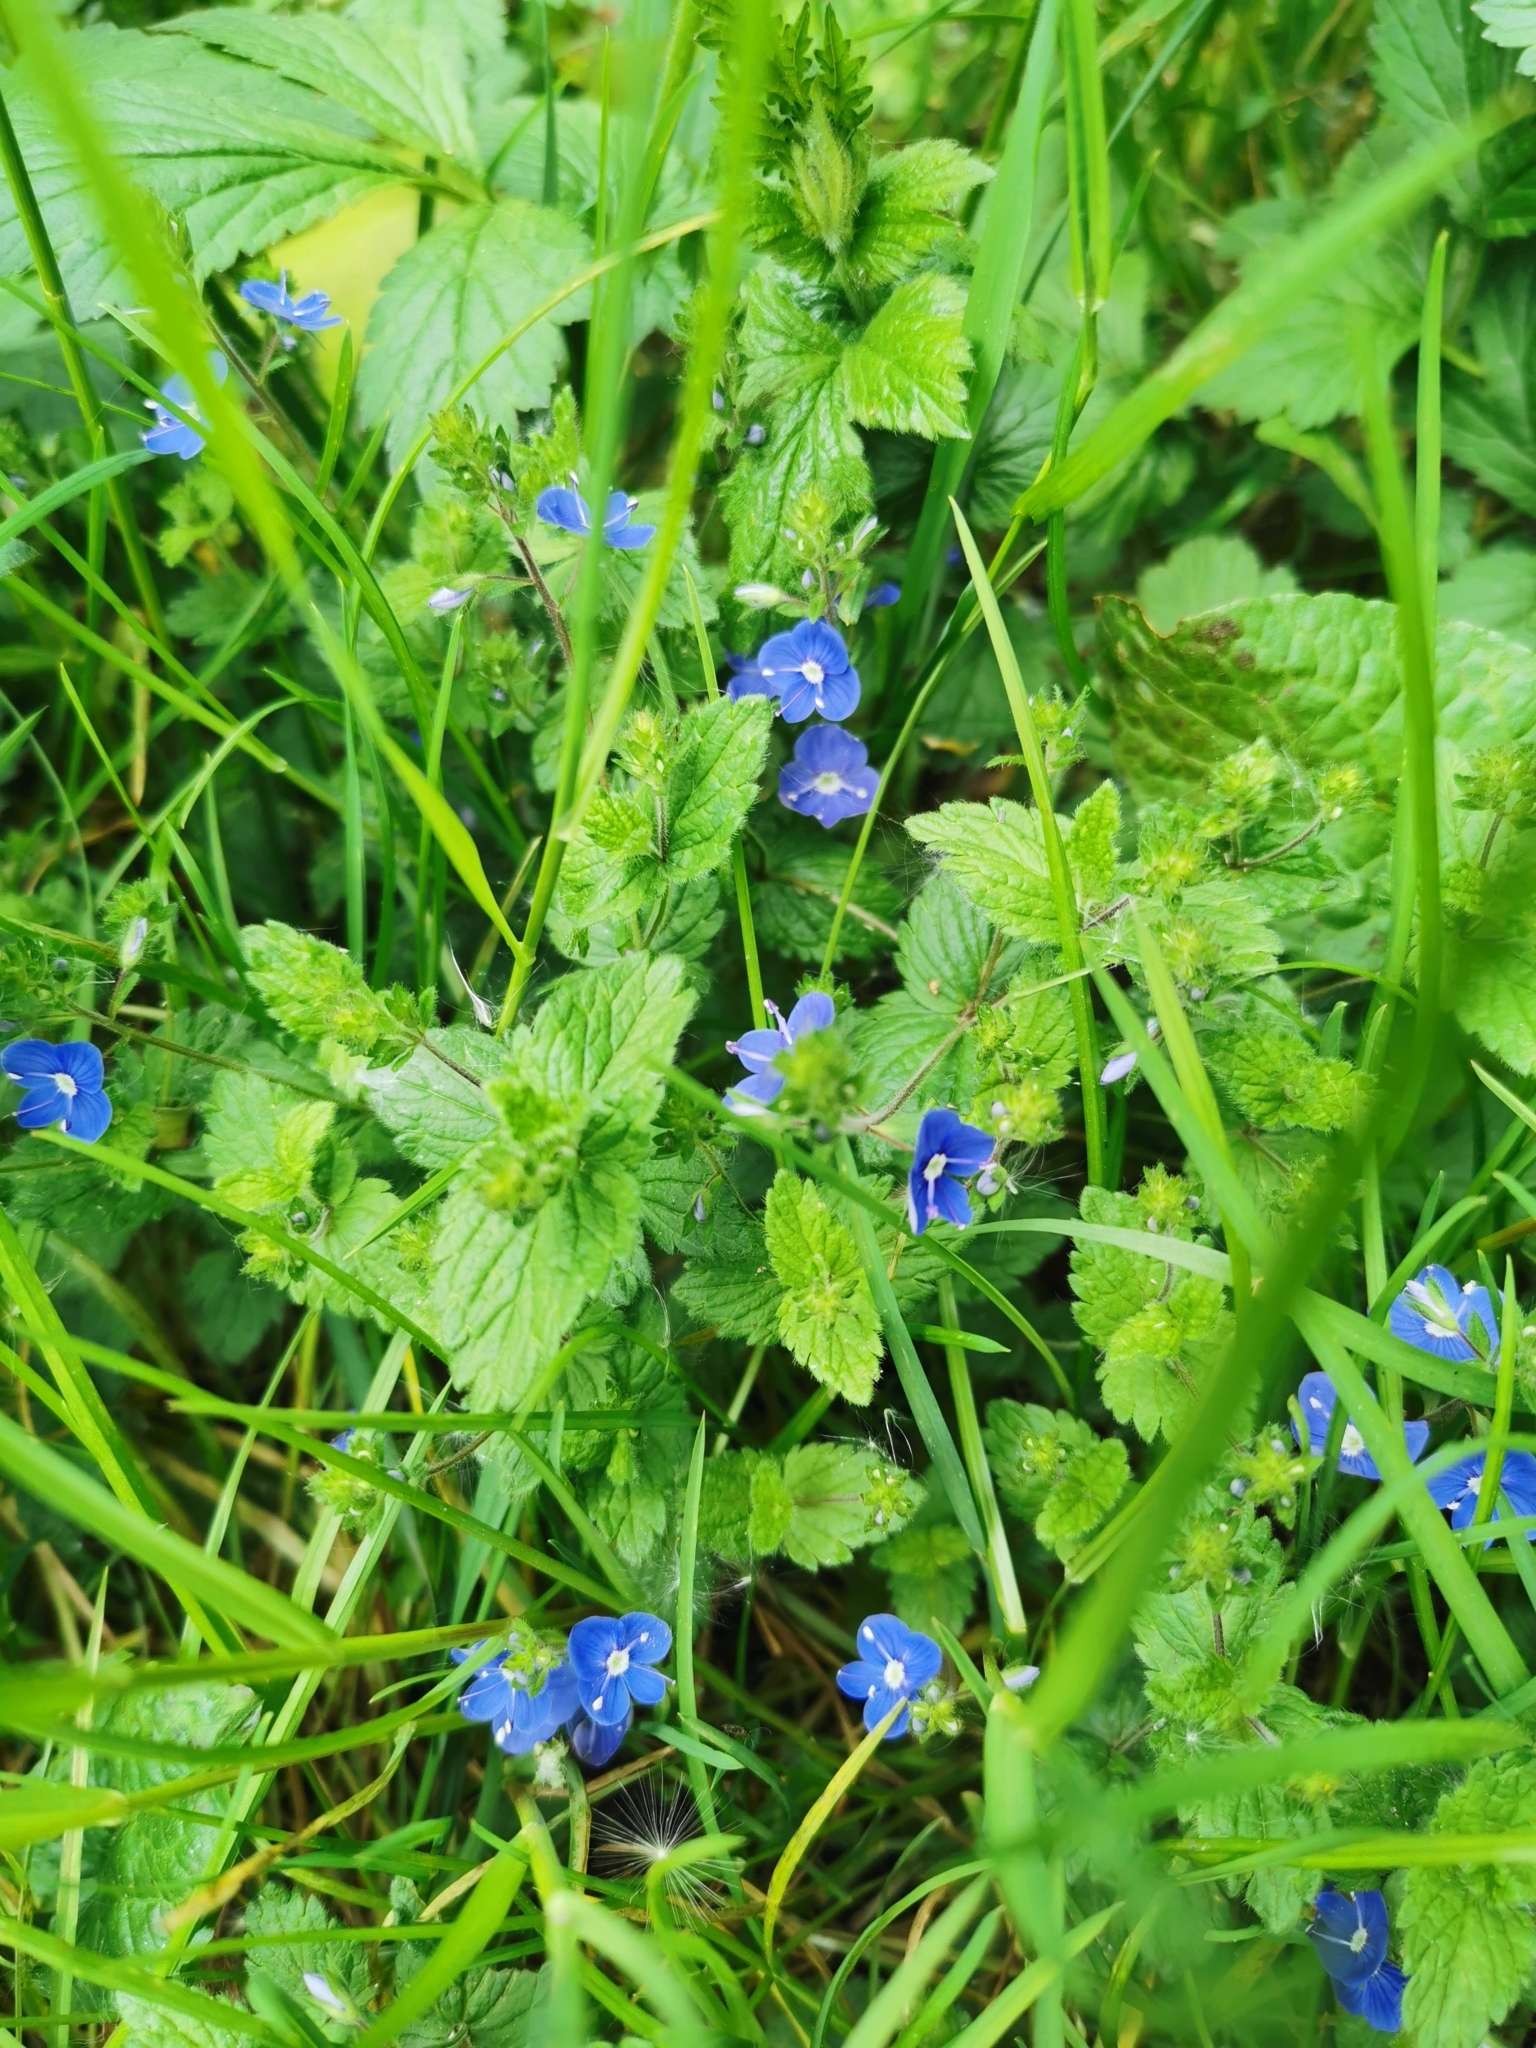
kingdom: Plantae
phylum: Tracheophyta
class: Magnoliopsida
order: Lamiales
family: Plantaginaceae
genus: Veronica
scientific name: Veronica chamaedrys
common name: Germander speedwell
